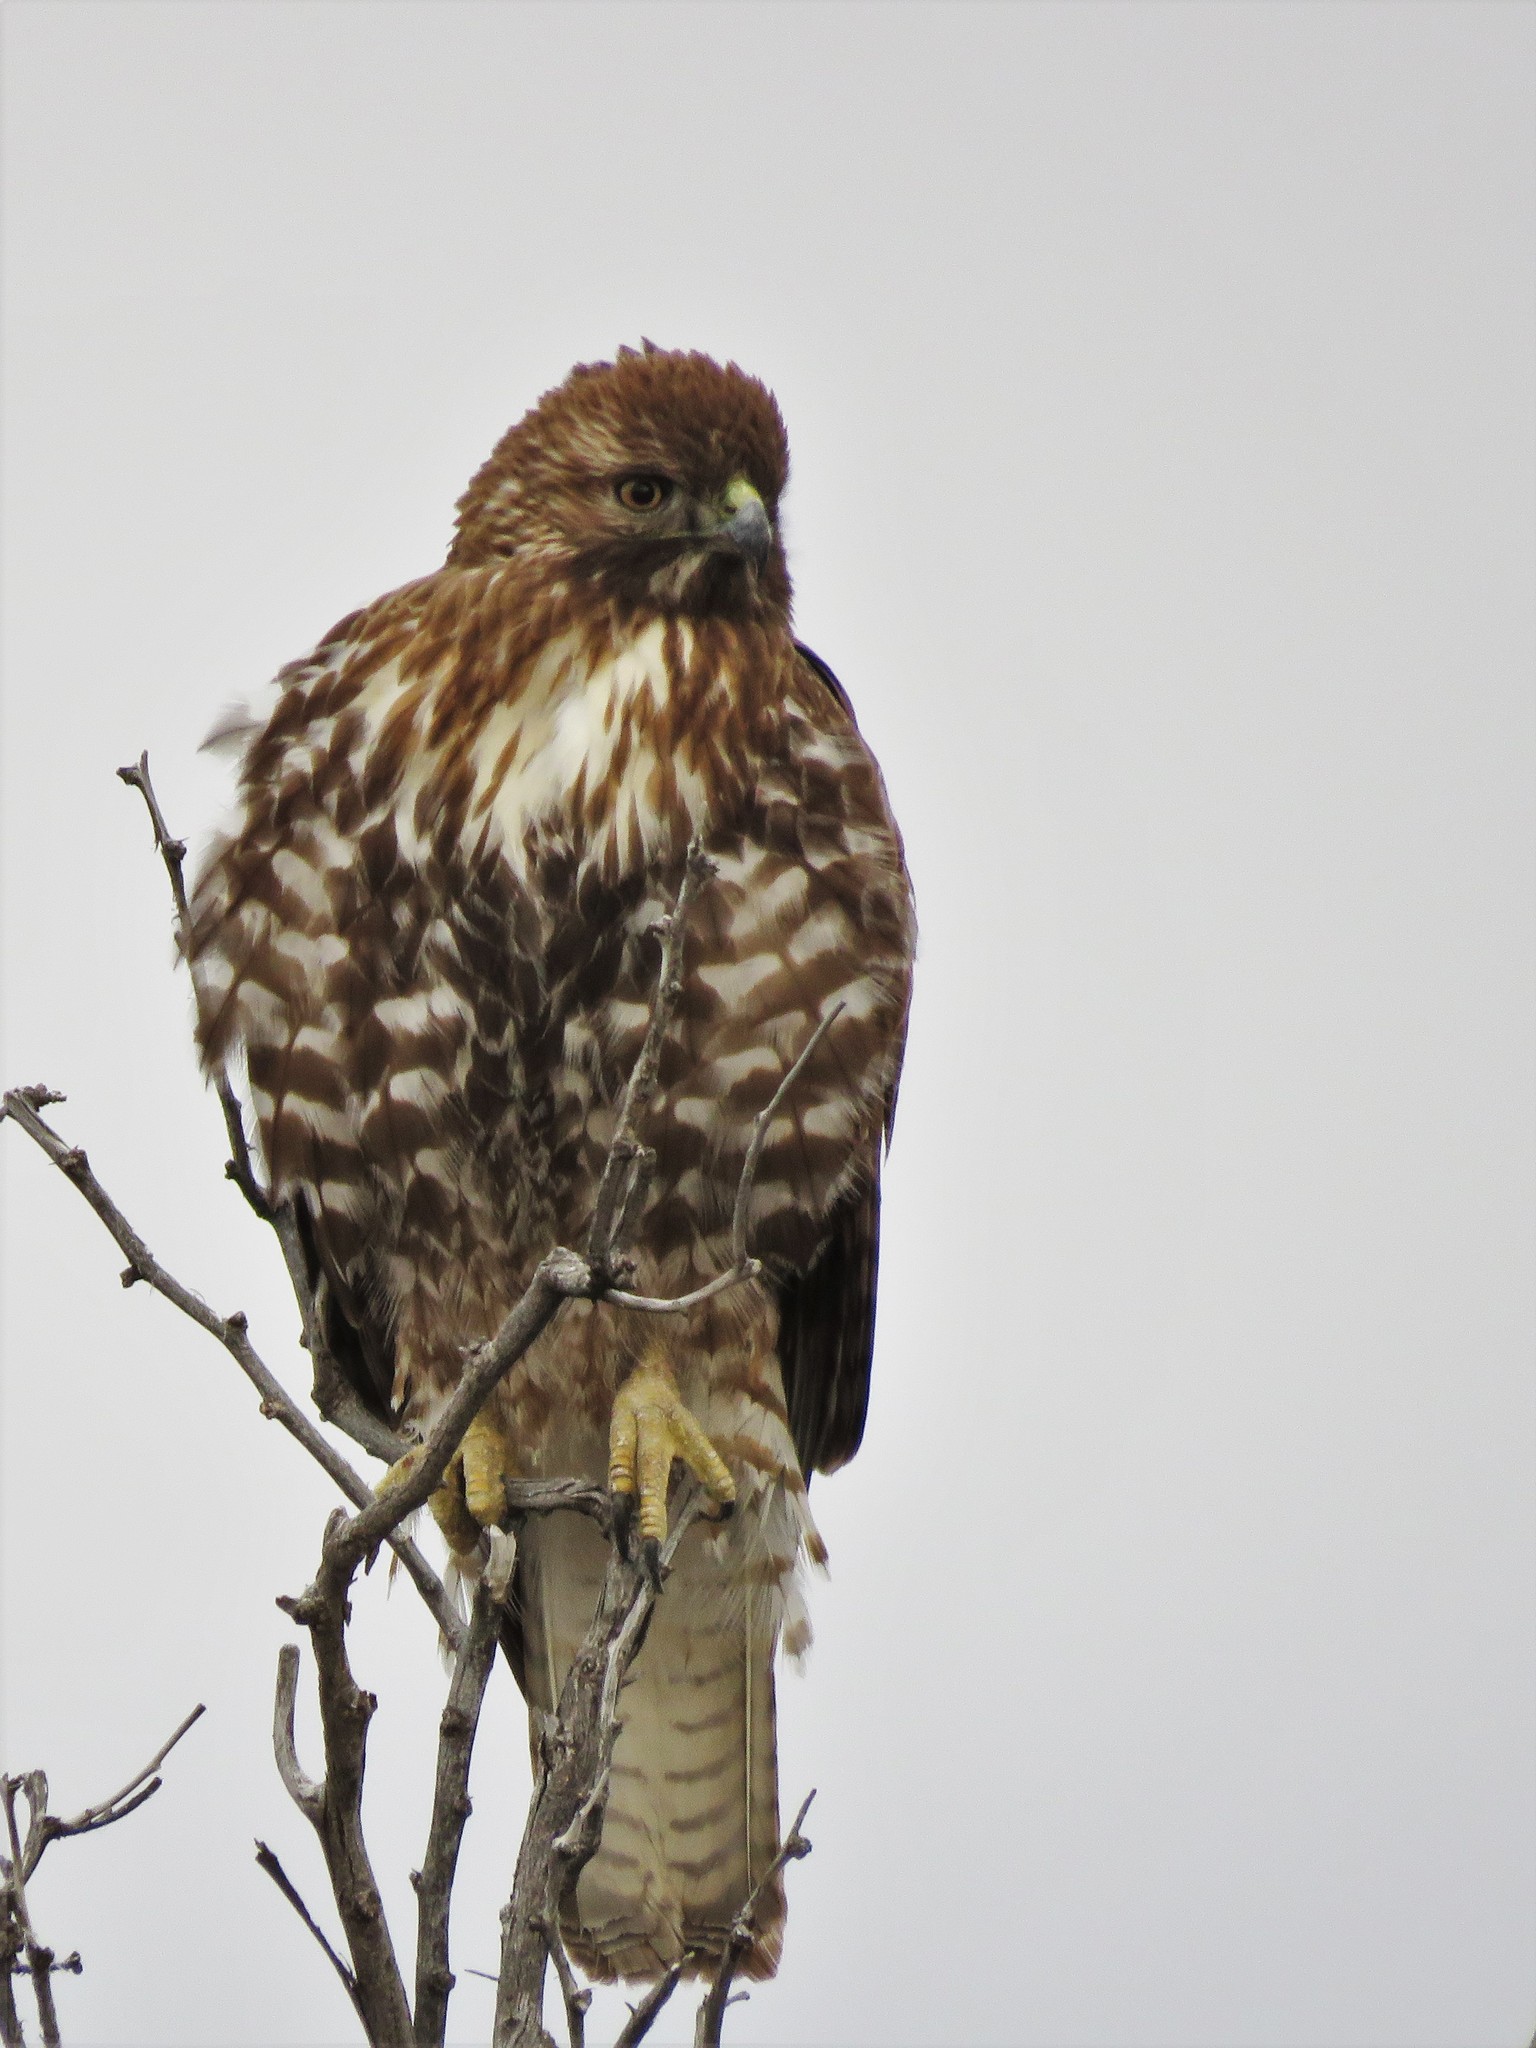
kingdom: Animalia
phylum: Chordata
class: Aves
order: Accipitriformes
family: Accipitridae
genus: Buteo
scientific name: Buteo jamaicensis
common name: Red-tailed hawk
